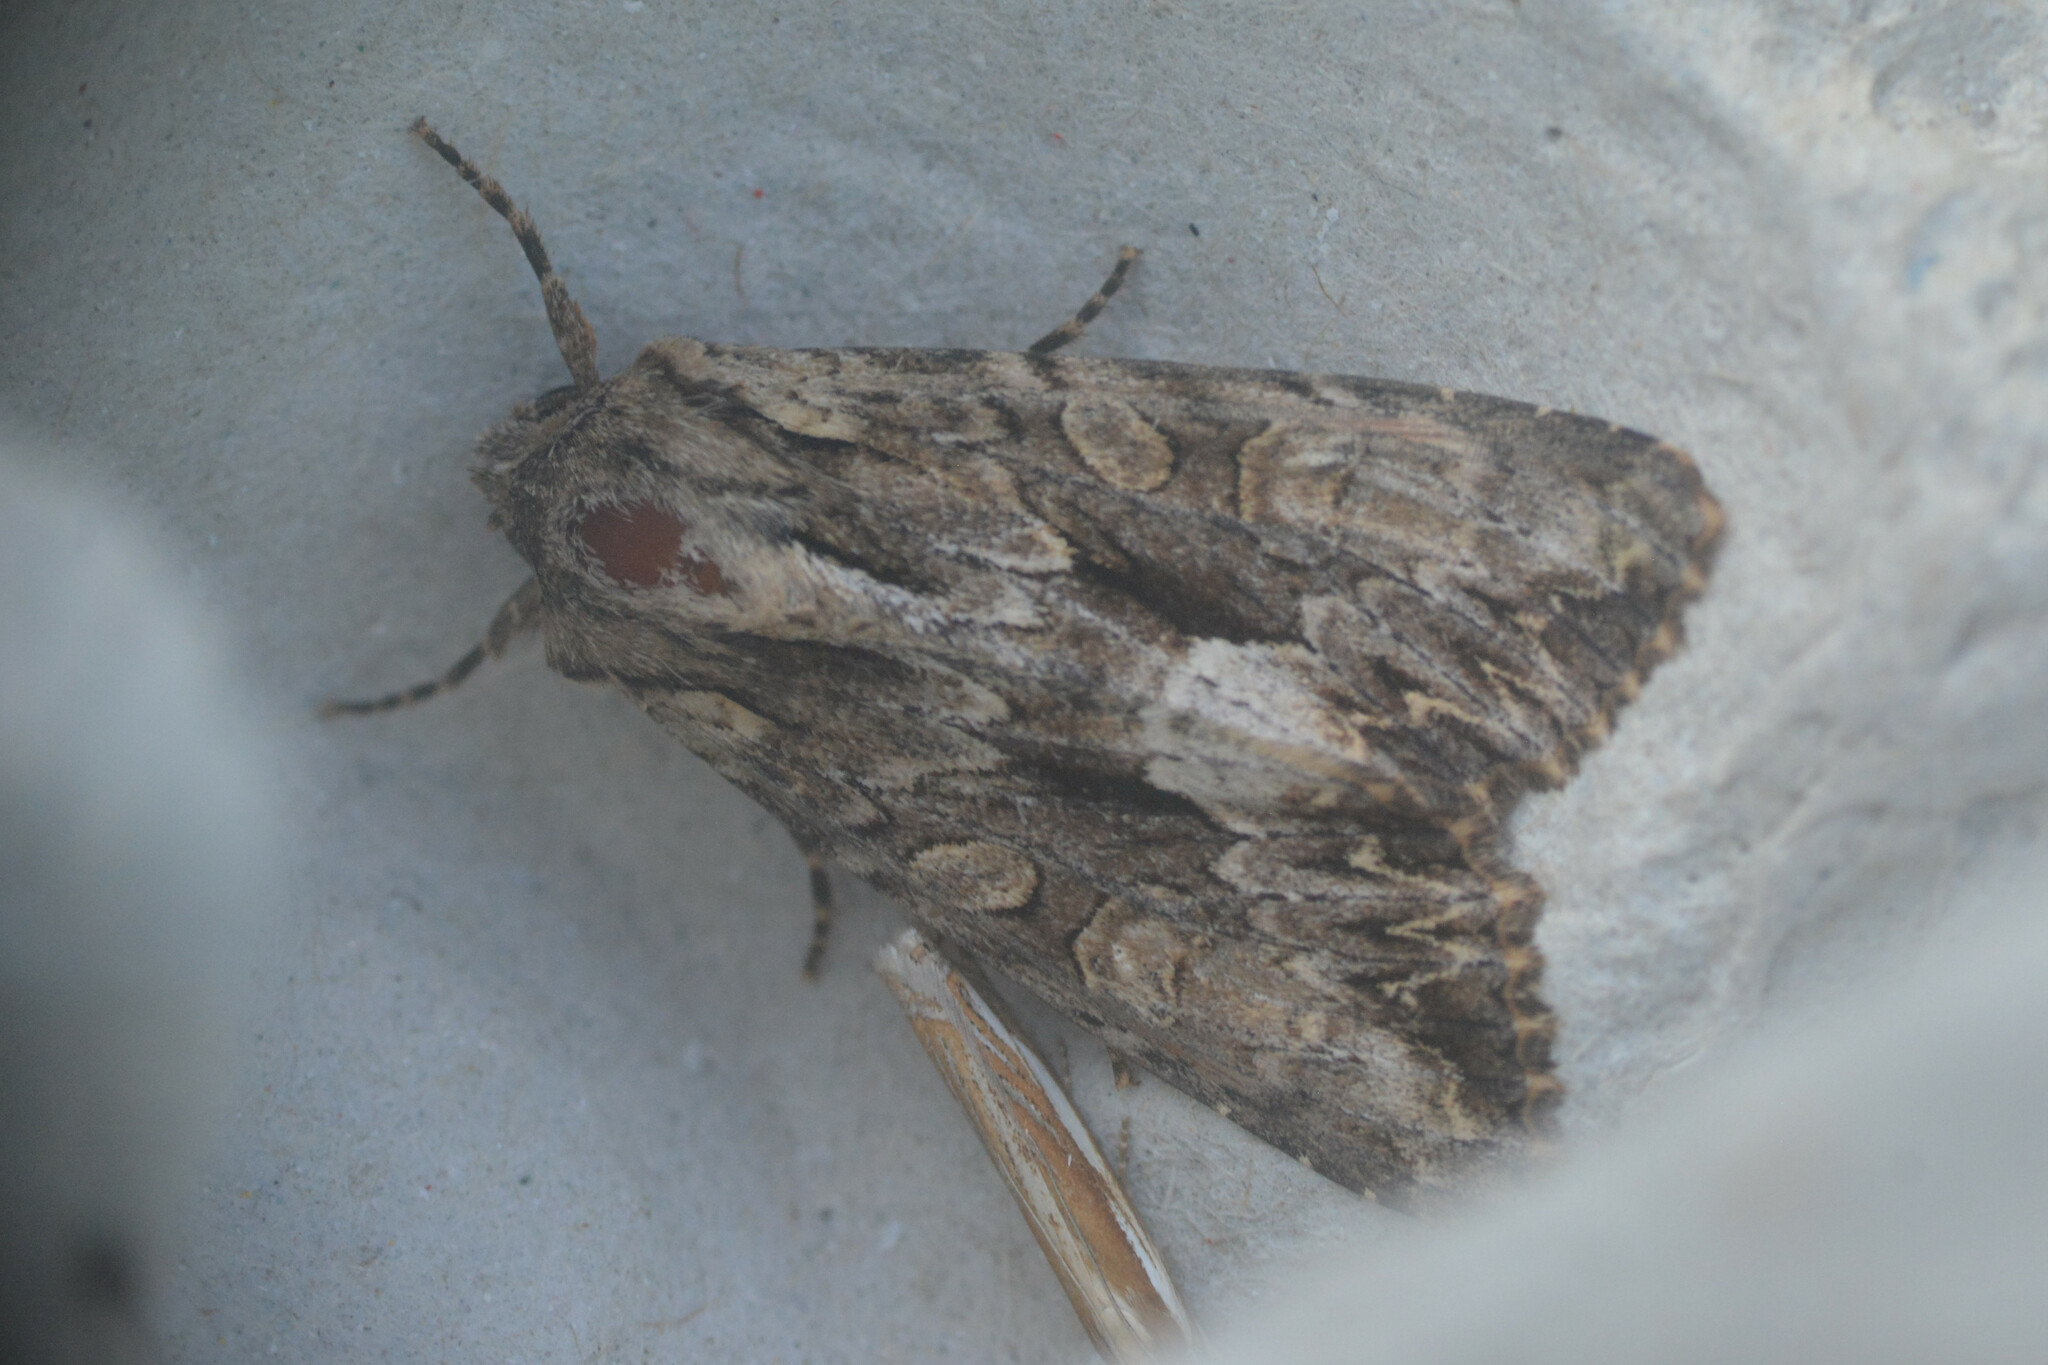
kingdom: Animalia
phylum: Arthropoda
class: Insecta
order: Lepidoptera
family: Noctuidae
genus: Apamea
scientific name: Apamea monoglypha
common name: Dark arches
